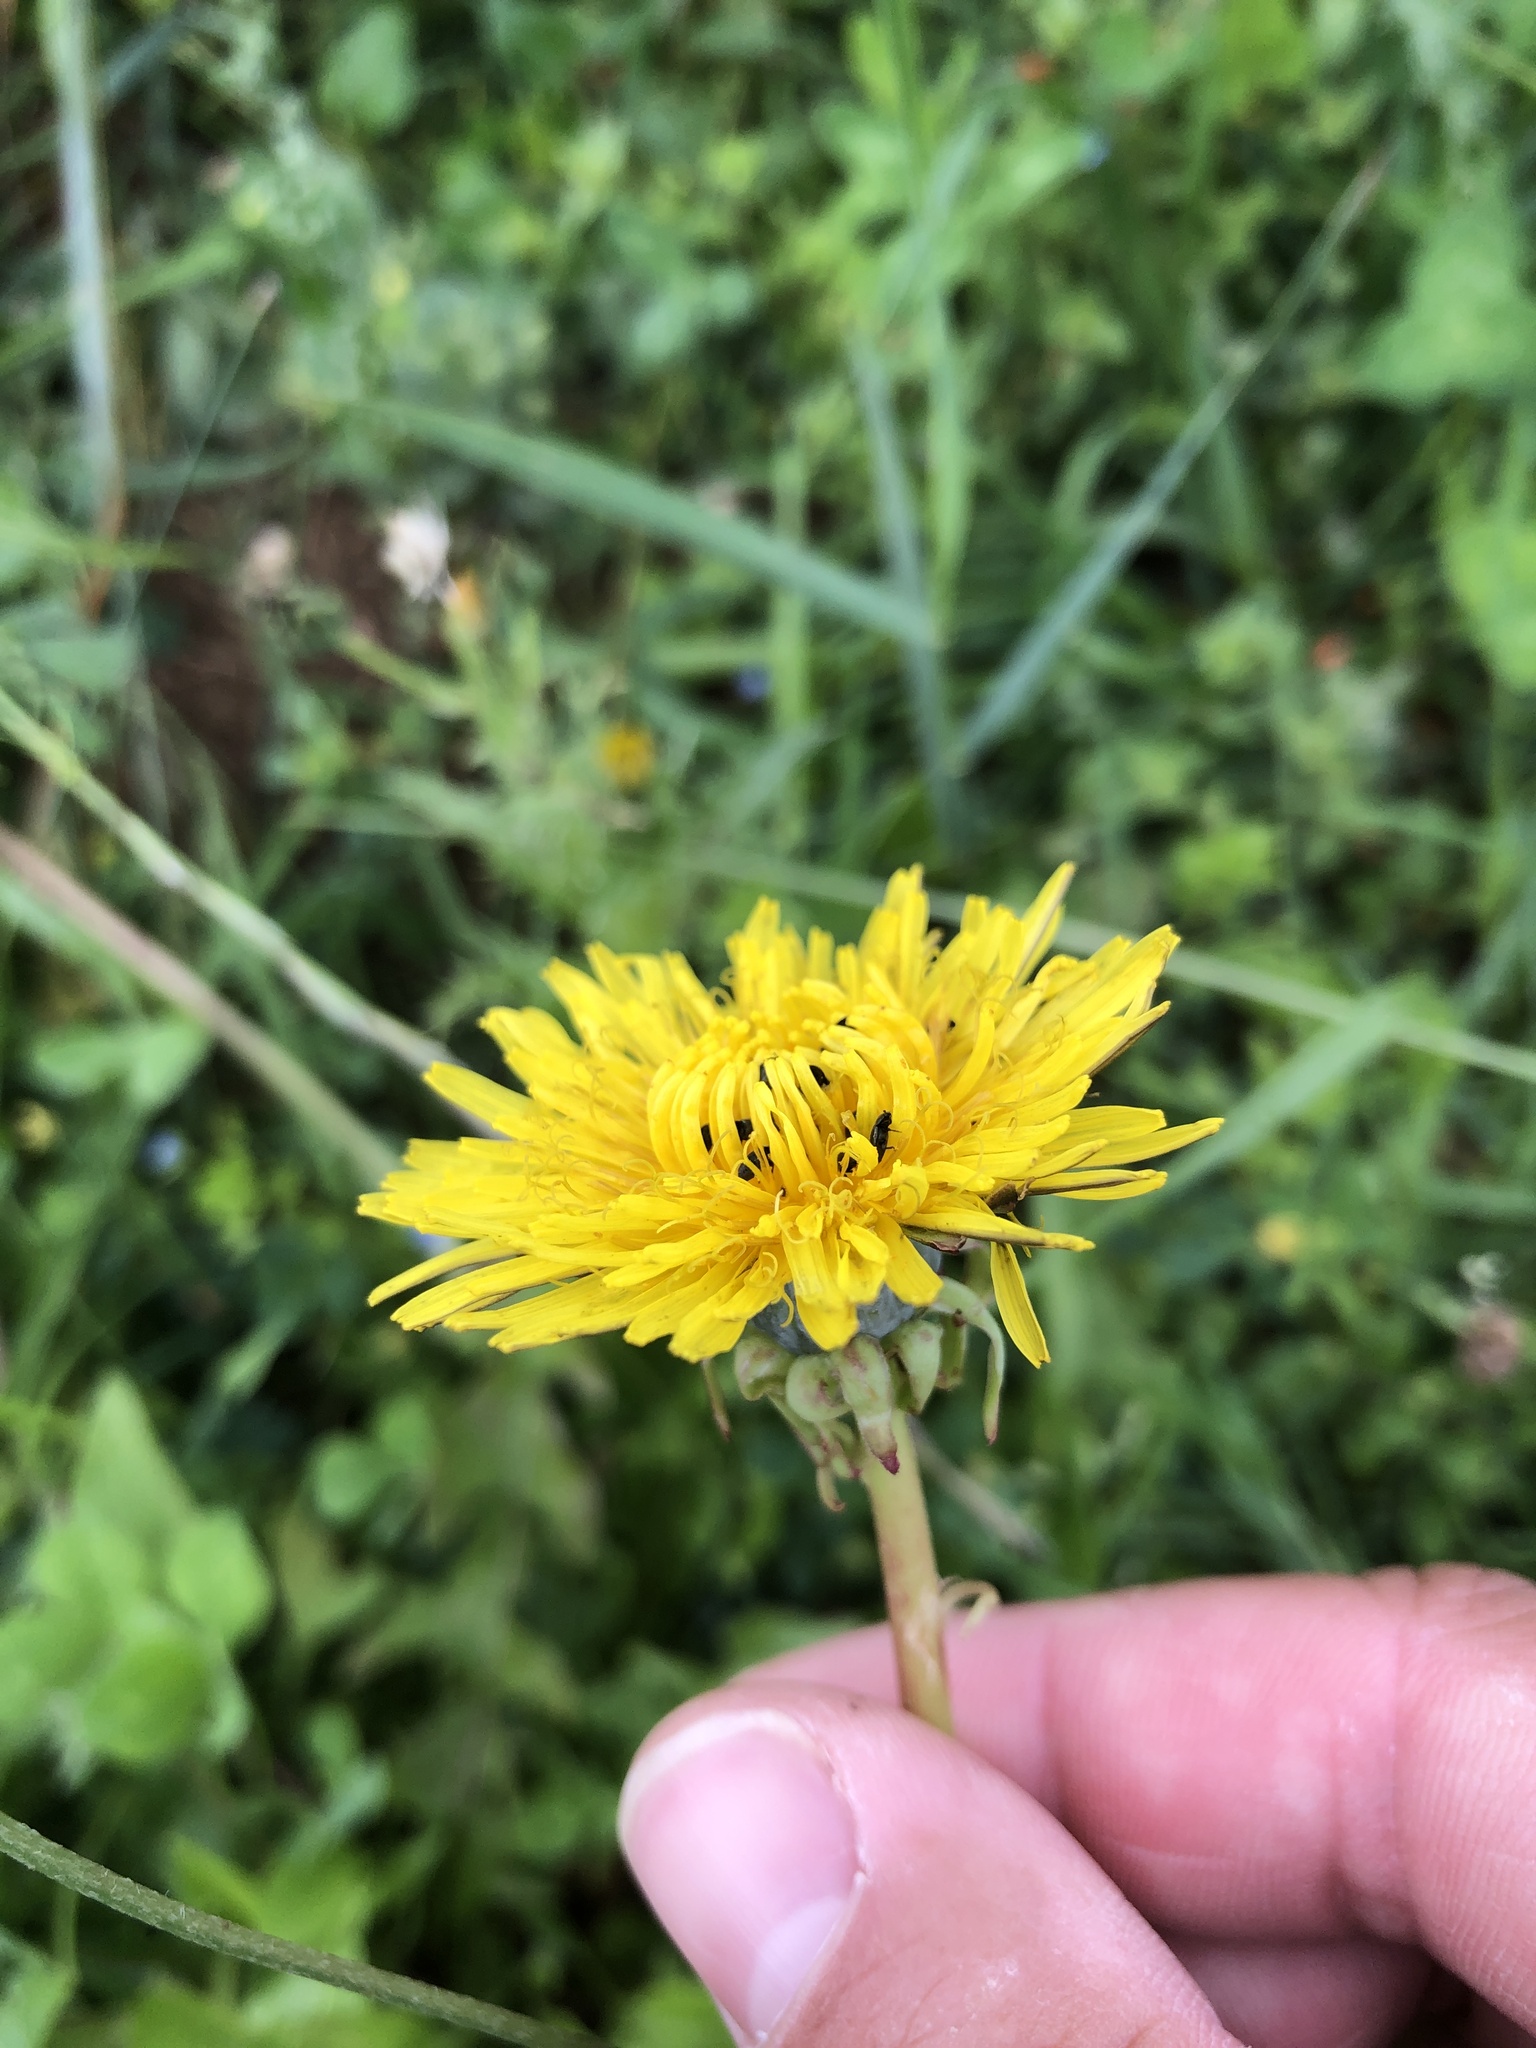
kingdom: Plantae
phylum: Tracheophyta
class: Magnoliopsida
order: Asterales
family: Asteraceae
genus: Taraxacum
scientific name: Taraxacum officinale
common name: Common dandelion
